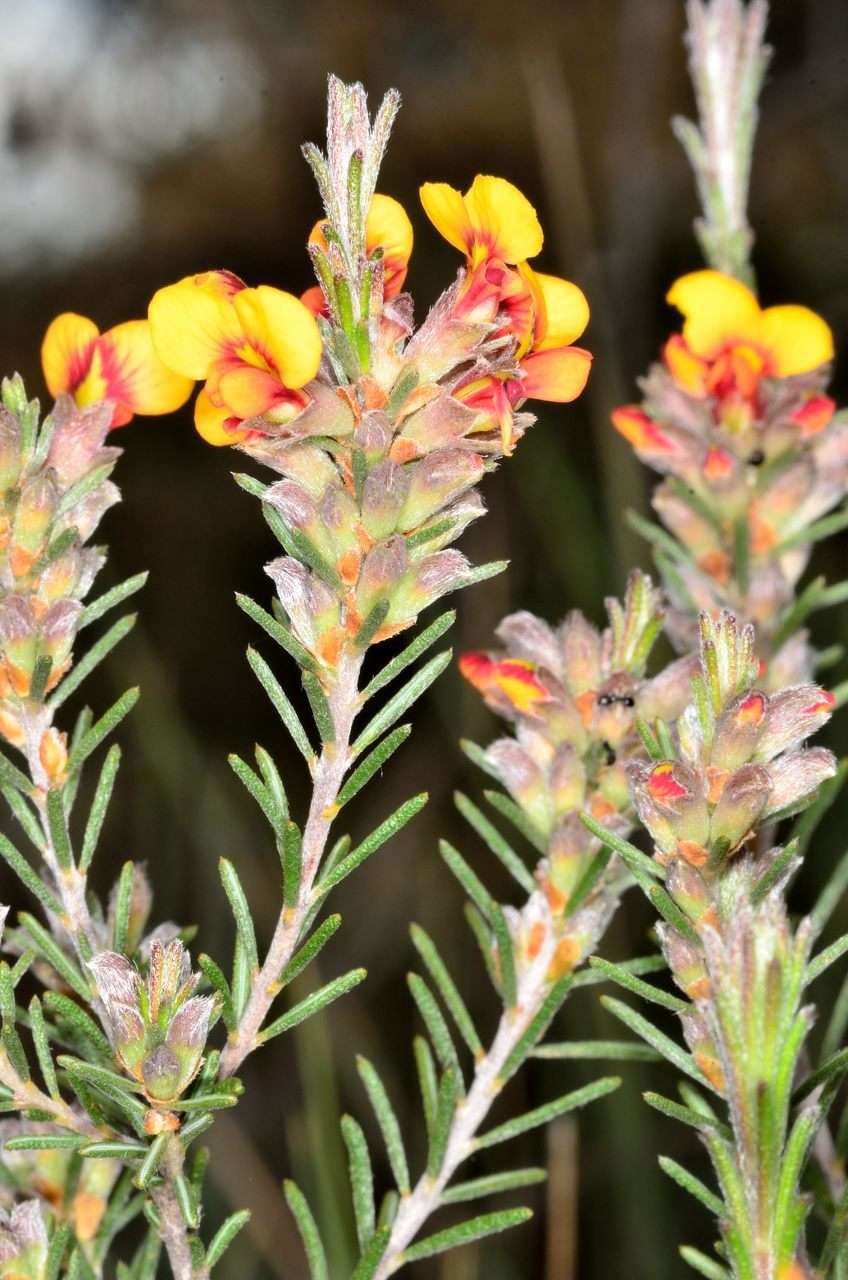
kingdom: Plantae
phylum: Tracheophyta
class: Magnoliopsida
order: Fabales
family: Fabaceae
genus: Dillwynia
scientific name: Dillwynia sericea
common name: Showy parrot-pea
